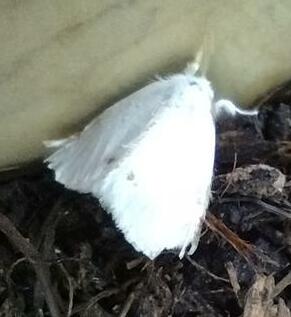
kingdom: Animalia
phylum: Arthropoda
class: Insecta
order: Lepidoptera
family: Erebidae
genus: Sphrageidus
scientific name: Sphrageidus similis
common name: Yellow-tail
